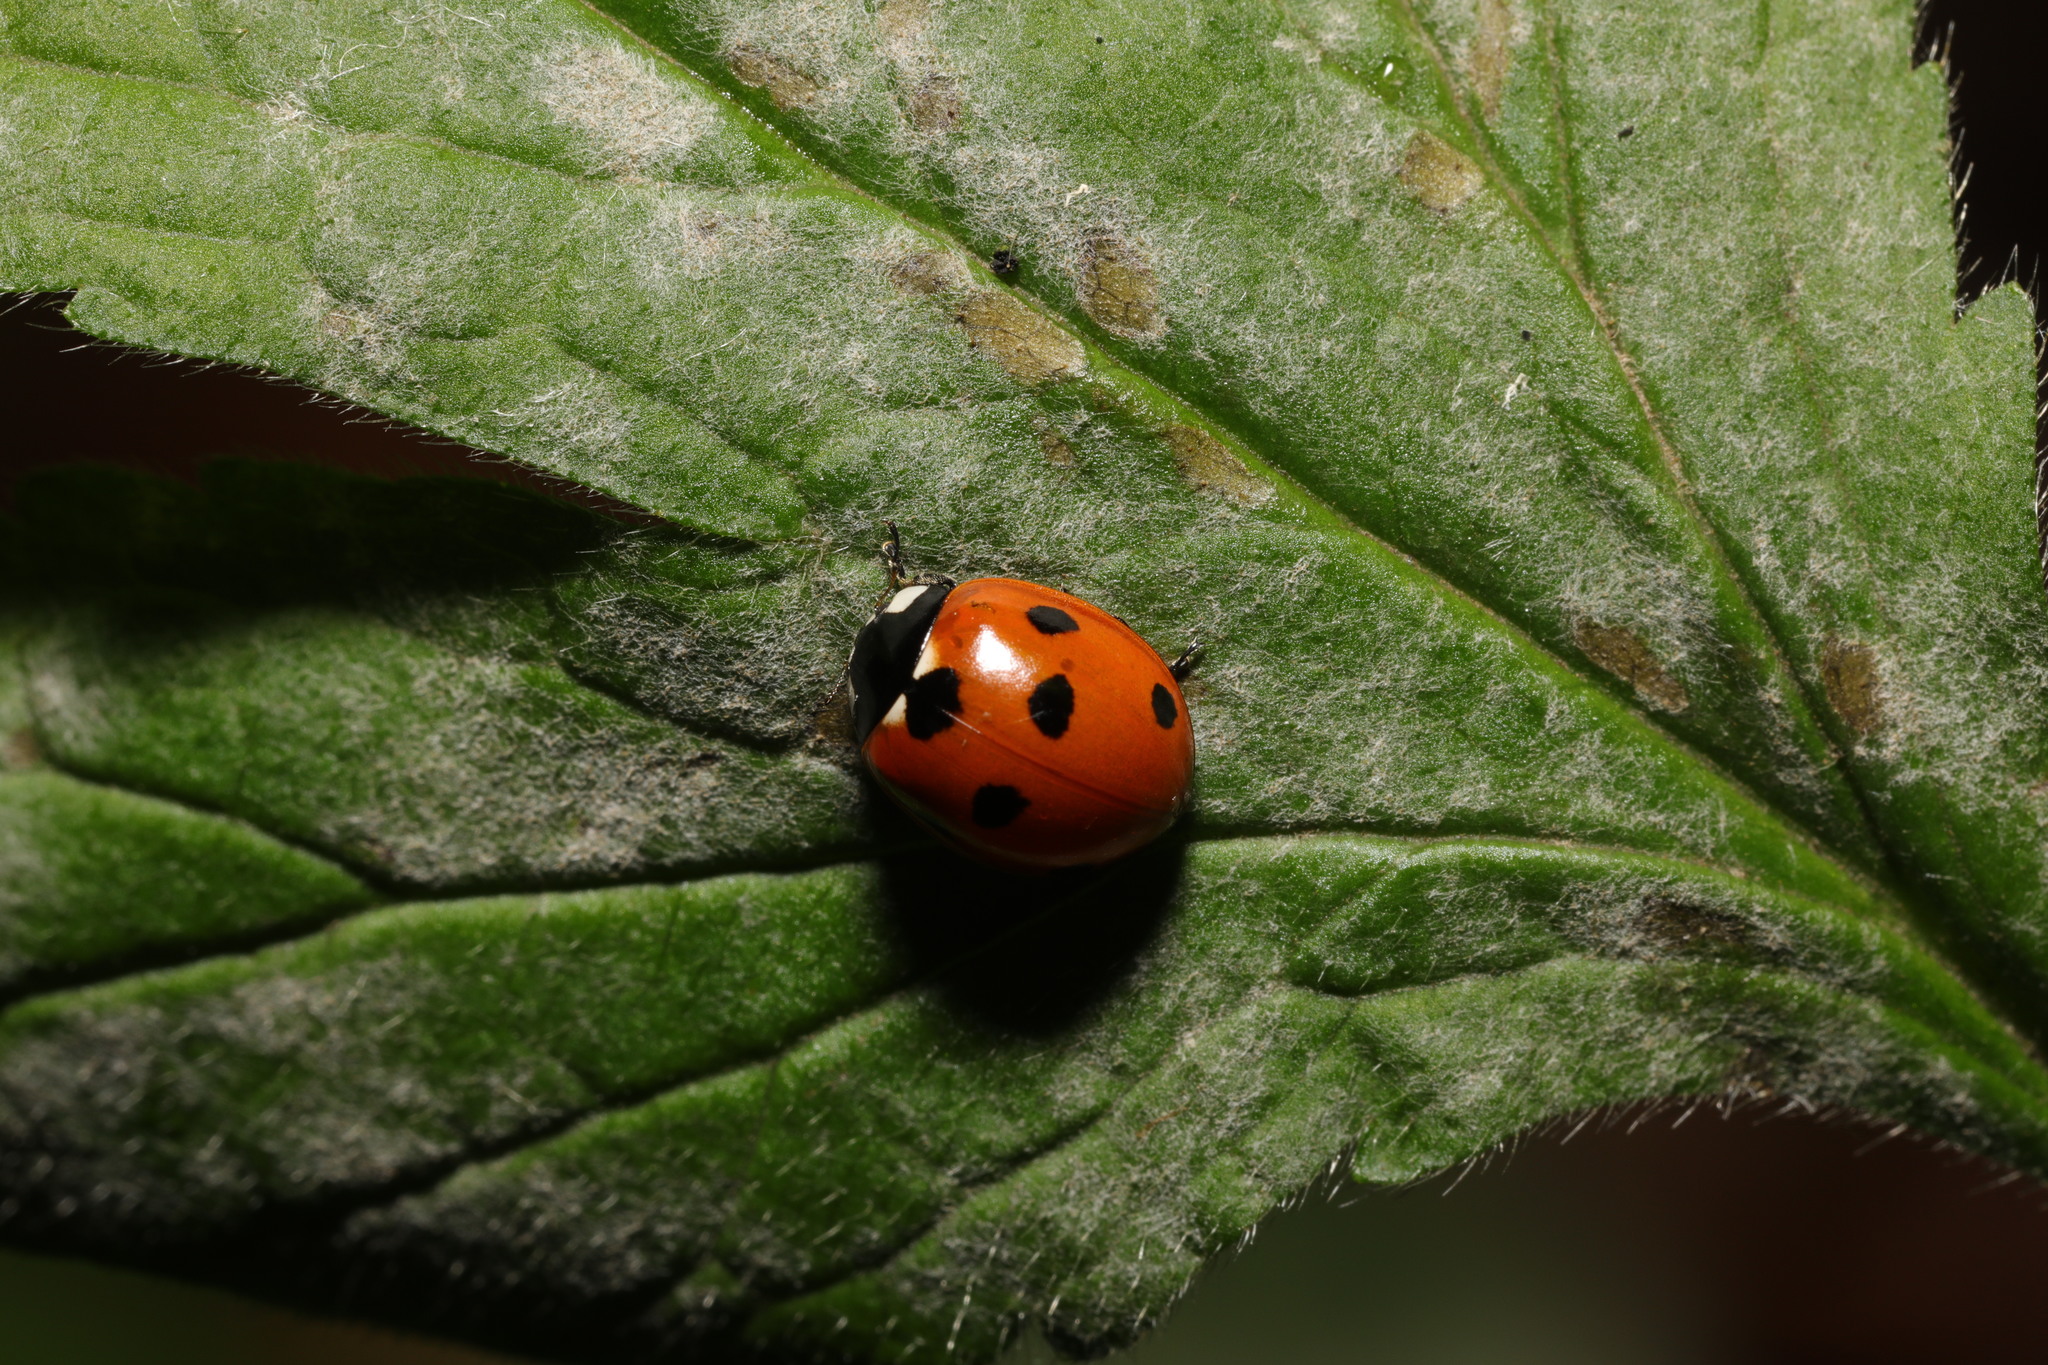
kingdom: Animalia
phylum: Arthropoda
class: Insecta
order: Coleoptera
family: Coccinellidae
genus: Coccinella
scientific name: Coccinella septempunctata
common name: Sevenspotted lady beetle
